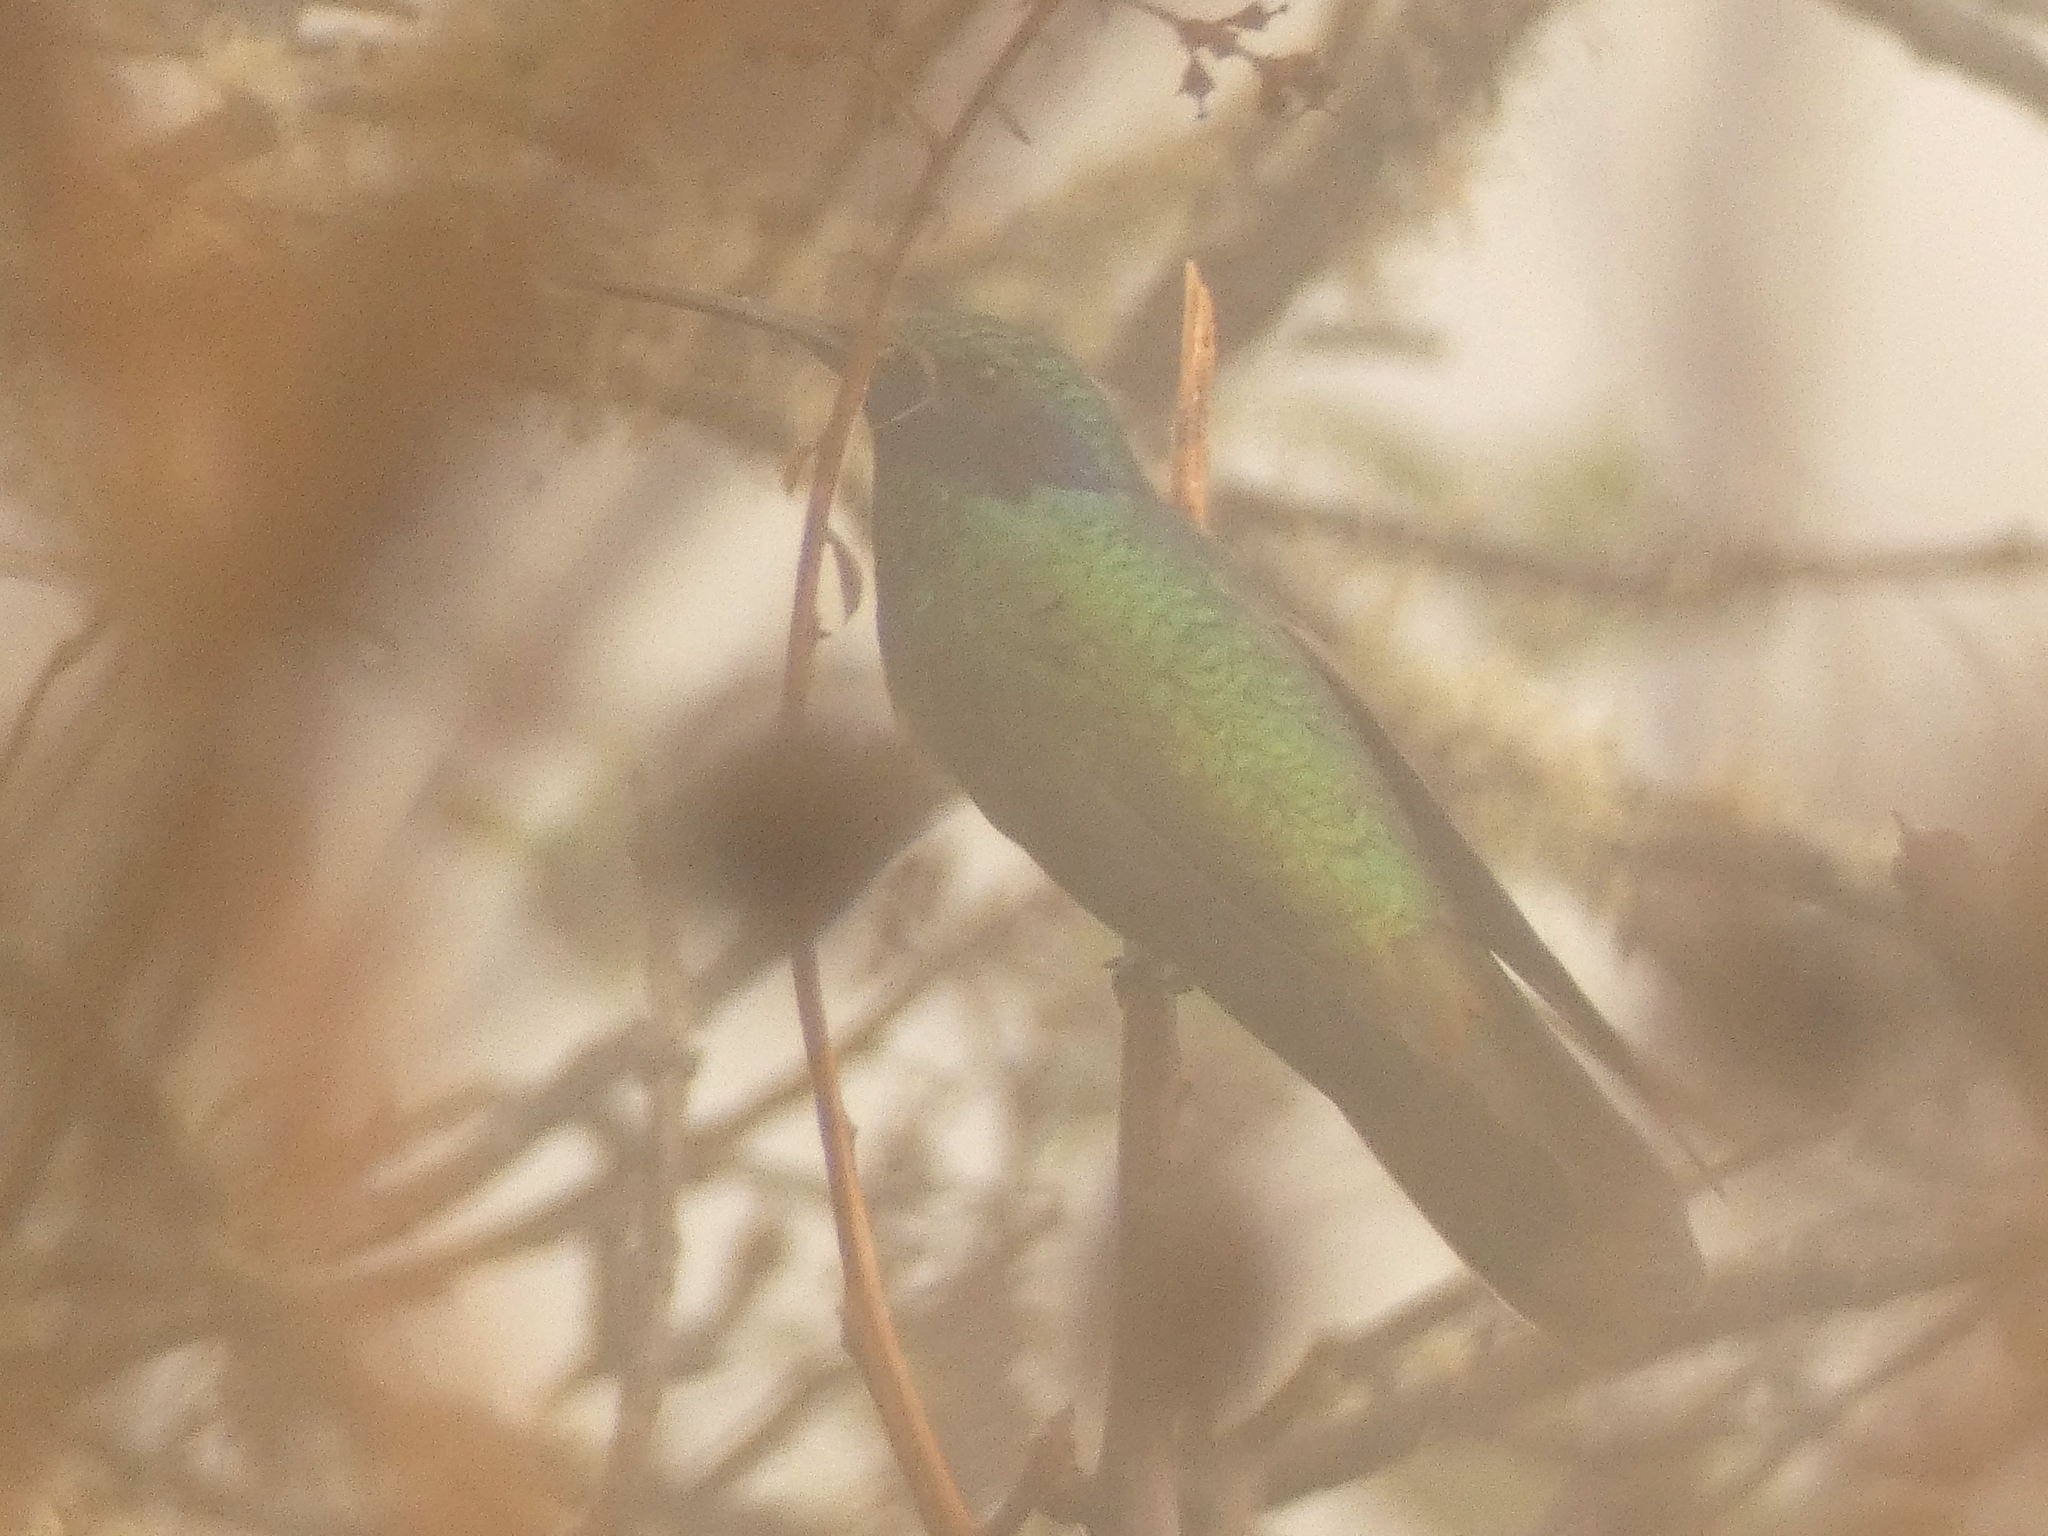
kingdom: Animalia
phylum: Chordata
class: Aves
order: Apodiformes
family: Trochilidae
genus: Colibri
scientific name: Colibri coruscans
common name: Sparkling violetear
